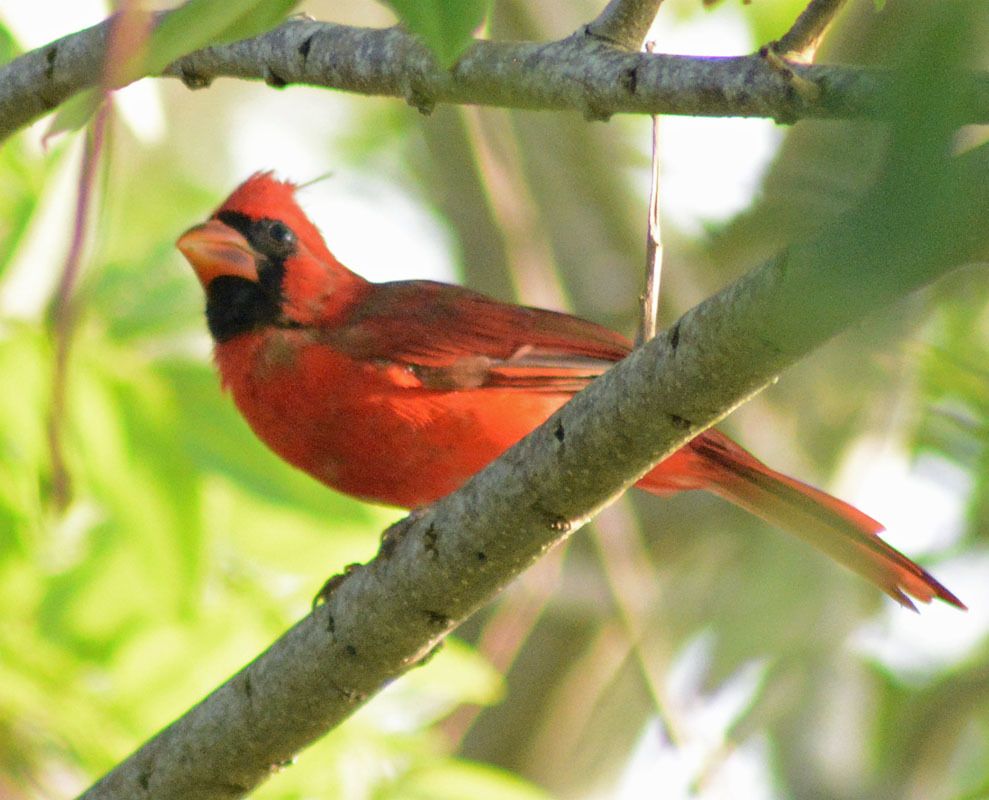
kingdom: Animalia
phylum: Chordata
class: Aves
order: Passeriformes
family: Cardinalidae
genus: Cardinalis
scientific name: Cardinalis cardinalis
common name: Northern cardinal
